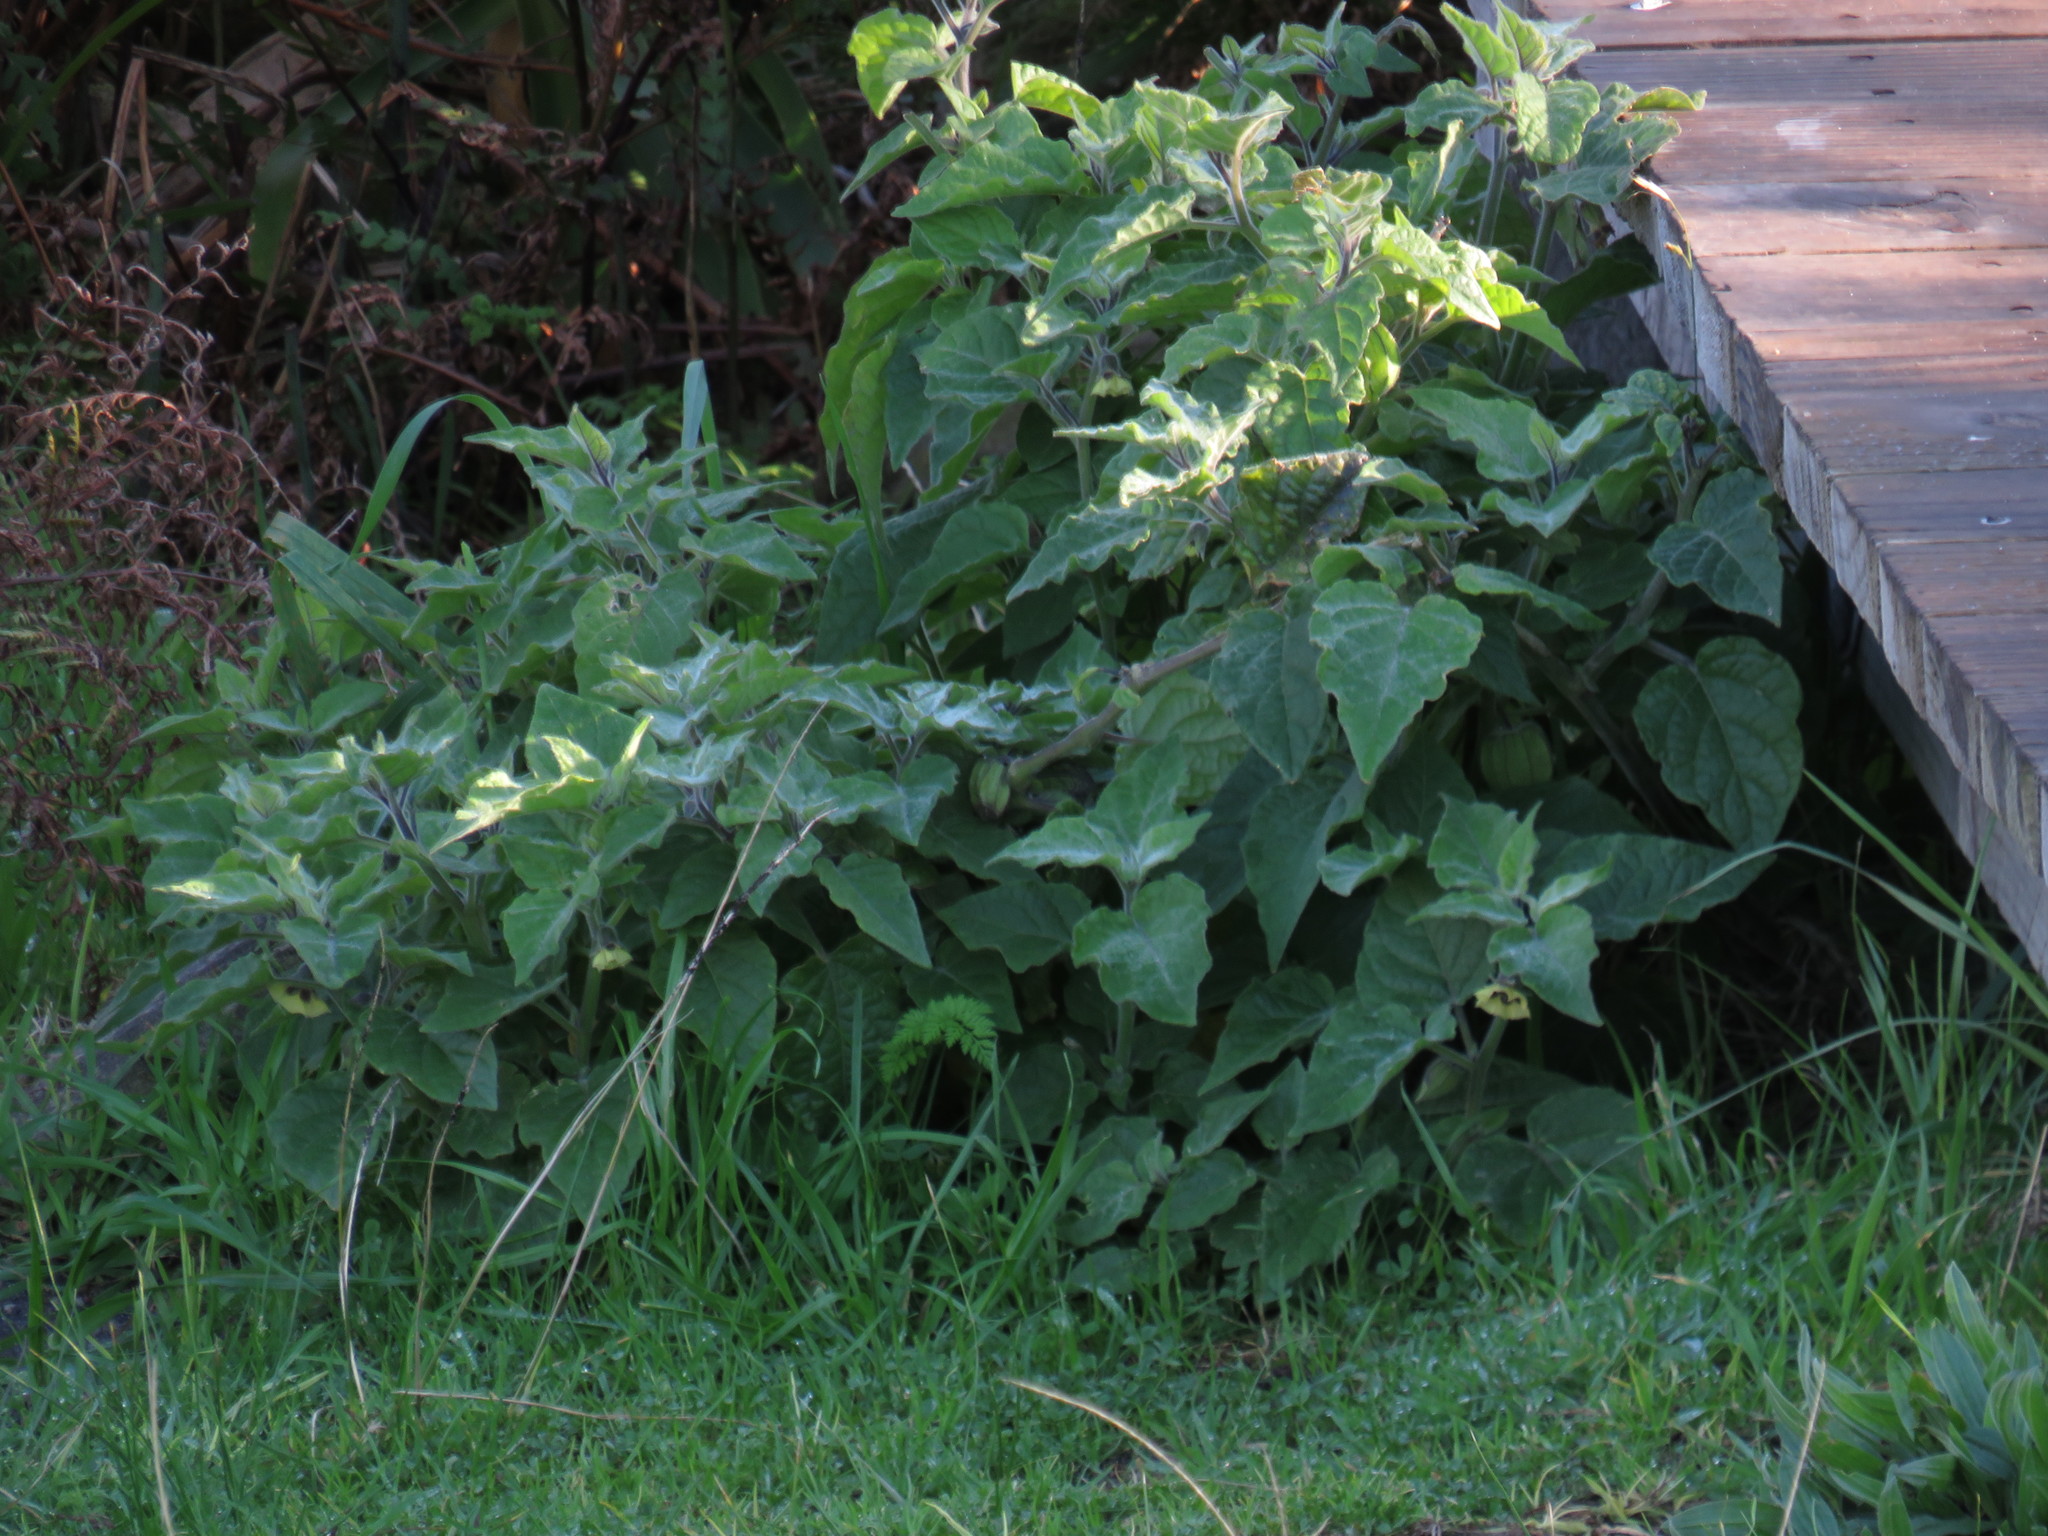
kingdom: Plantae
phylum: Tracheophyta
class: Magnoliopsida
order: Solanales
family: Solanaceae
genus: Physalis
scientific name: Physalis peruviana
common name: Cape-gooseberry
